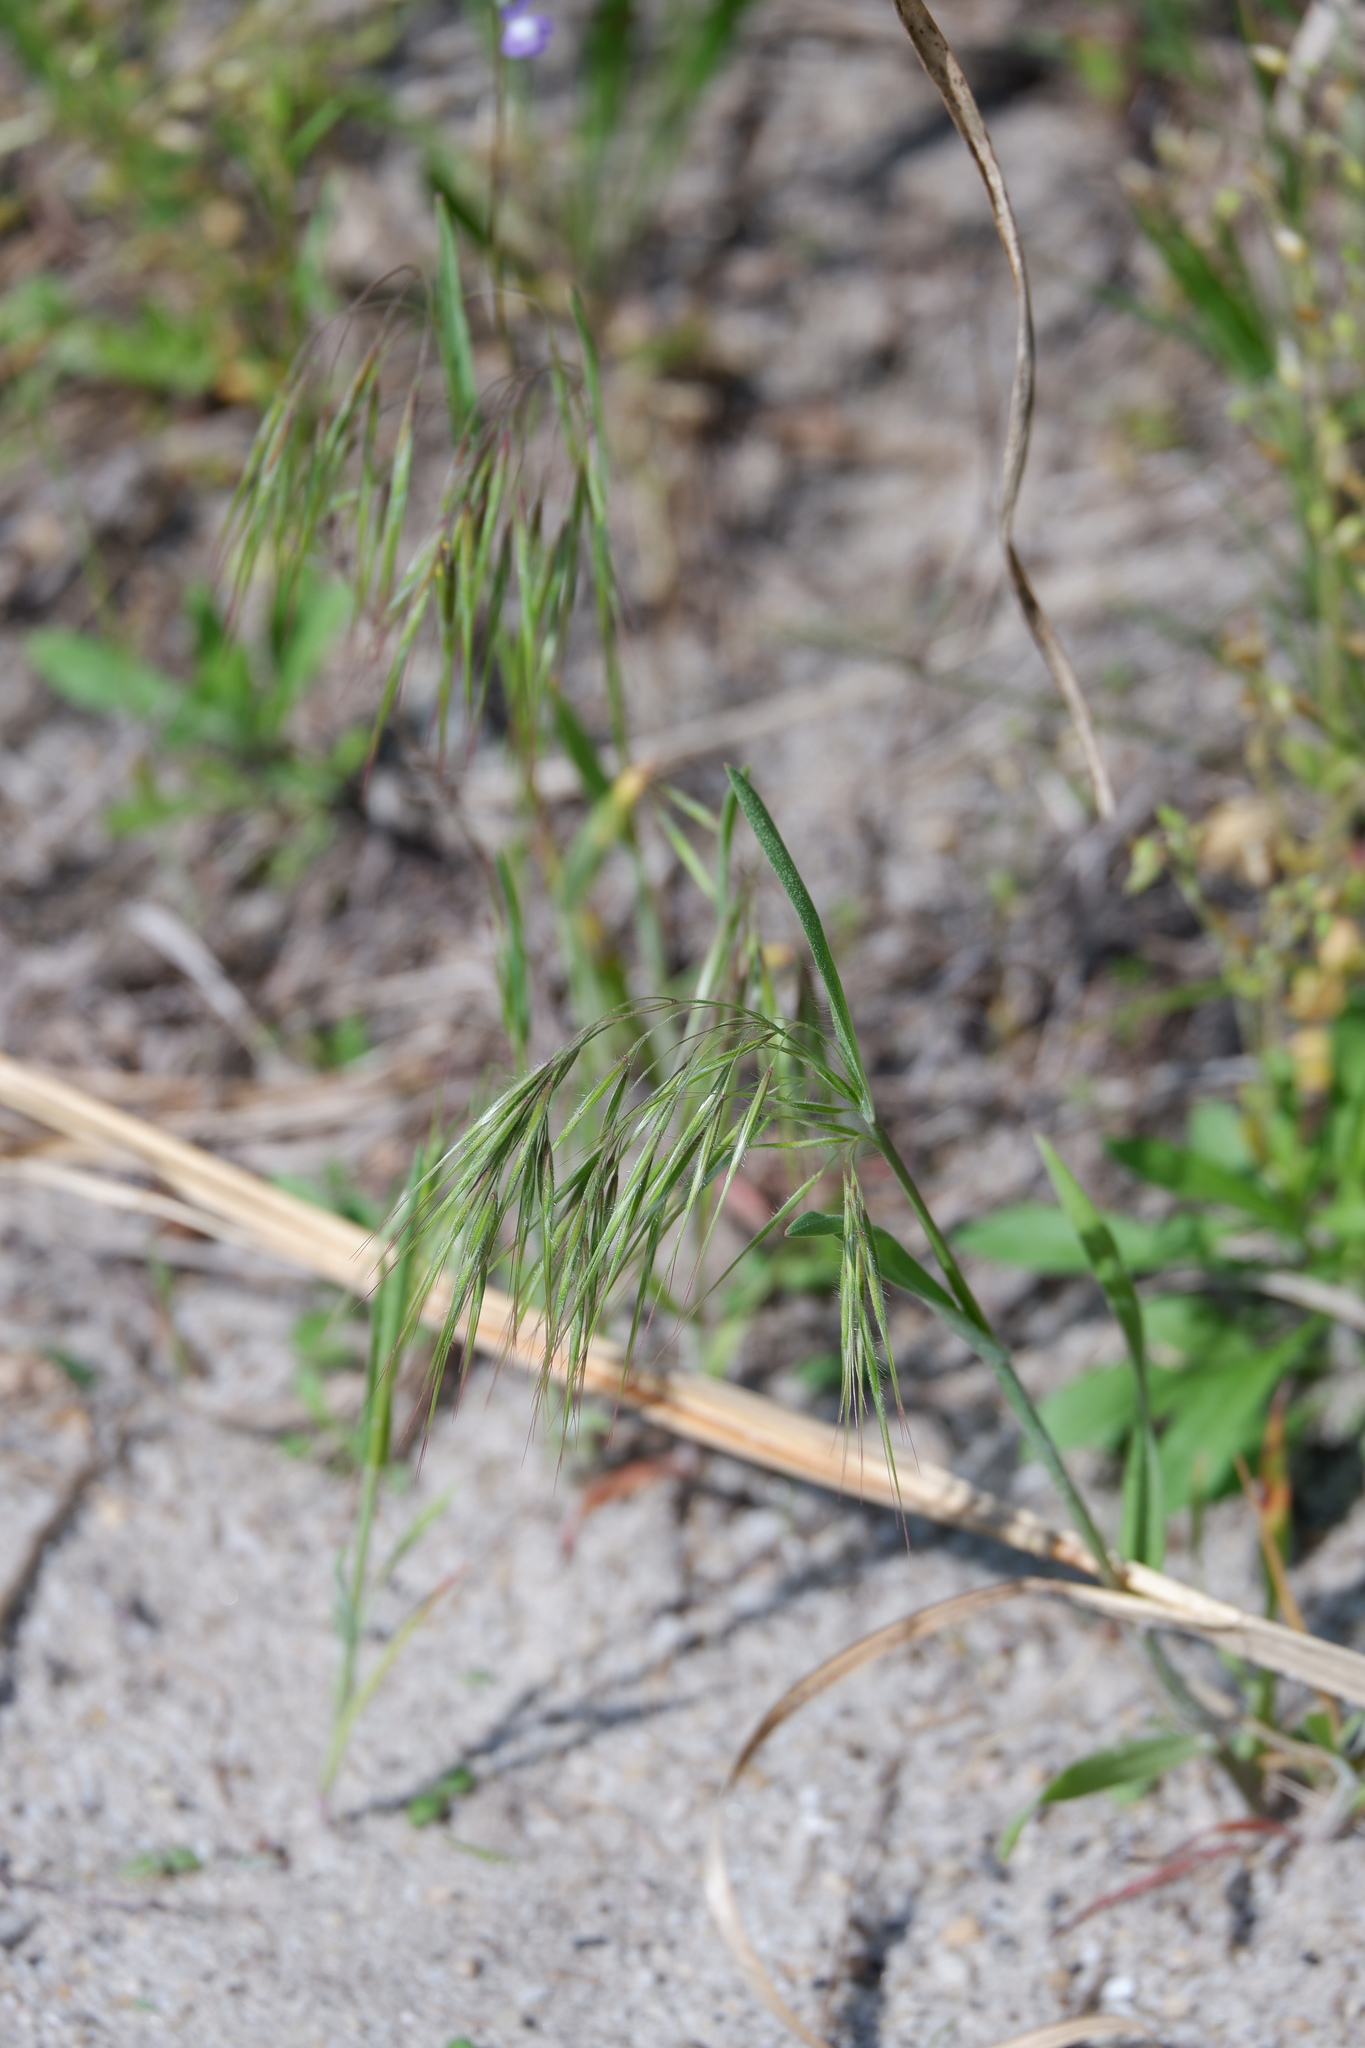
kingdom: Plantae
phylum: Tracheophyta
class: Liliopsida
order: Poales
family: Poaceae
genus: Bromus
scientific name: Bromus tectorum
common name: Cheatgrass
